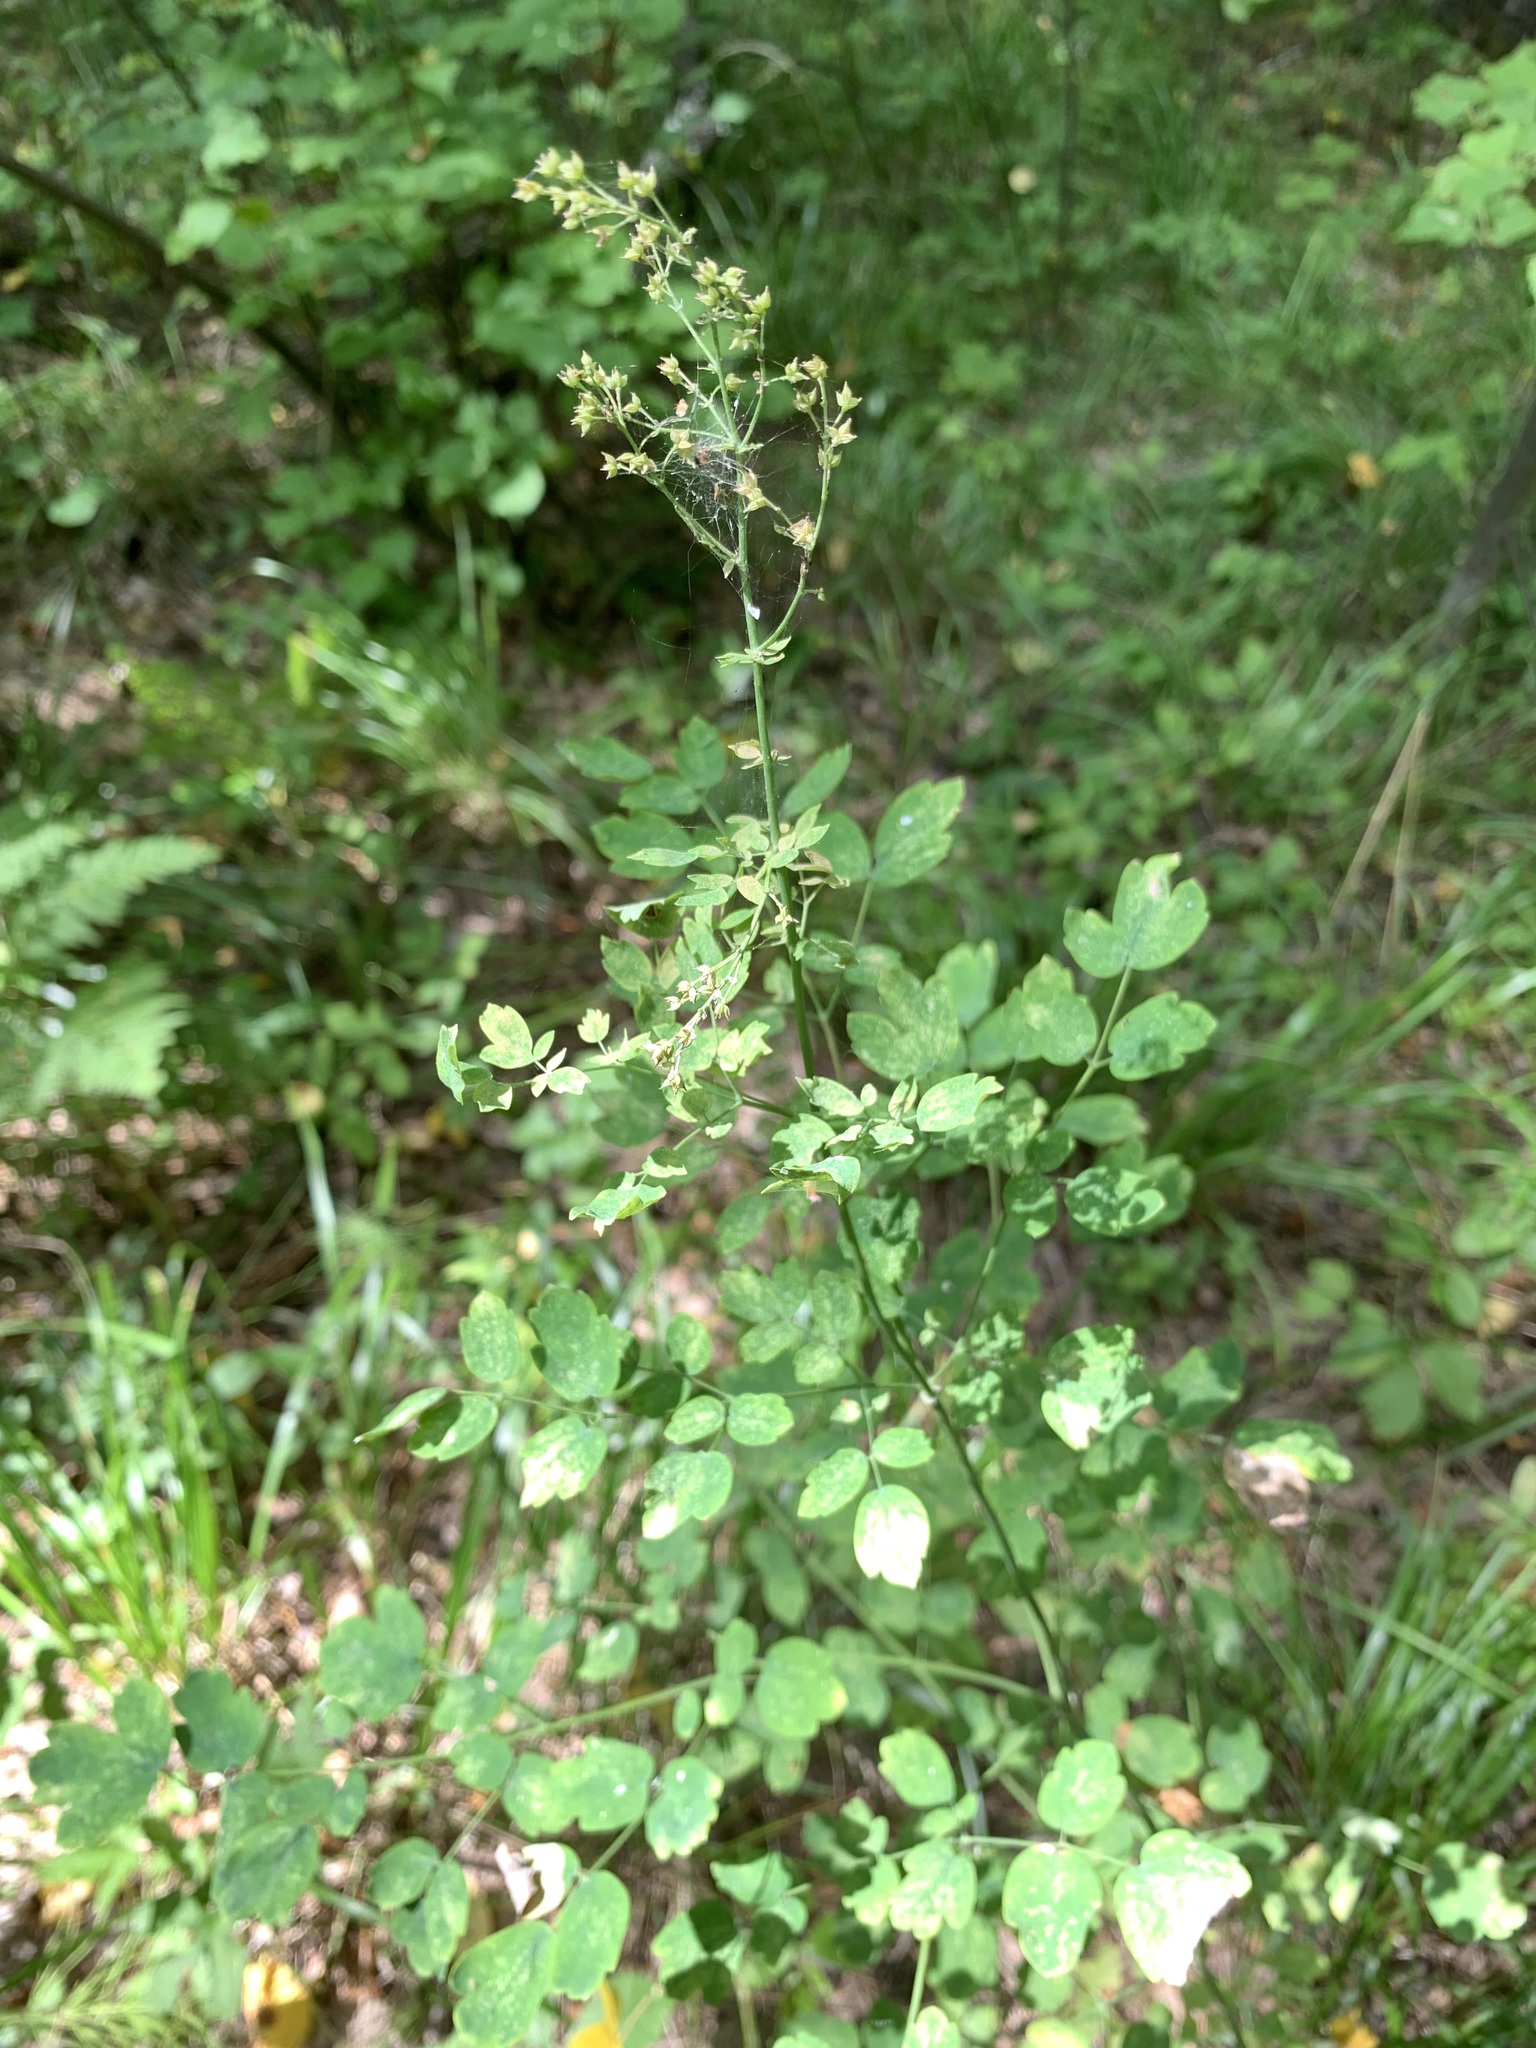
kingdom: Plantae
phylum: Tracheophyta
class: Magnoliopsida
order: Ranunculales
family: Ranunculaceae
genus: Thalictrum
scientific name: Thalictrum minus
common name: Lesser meadow-rue
